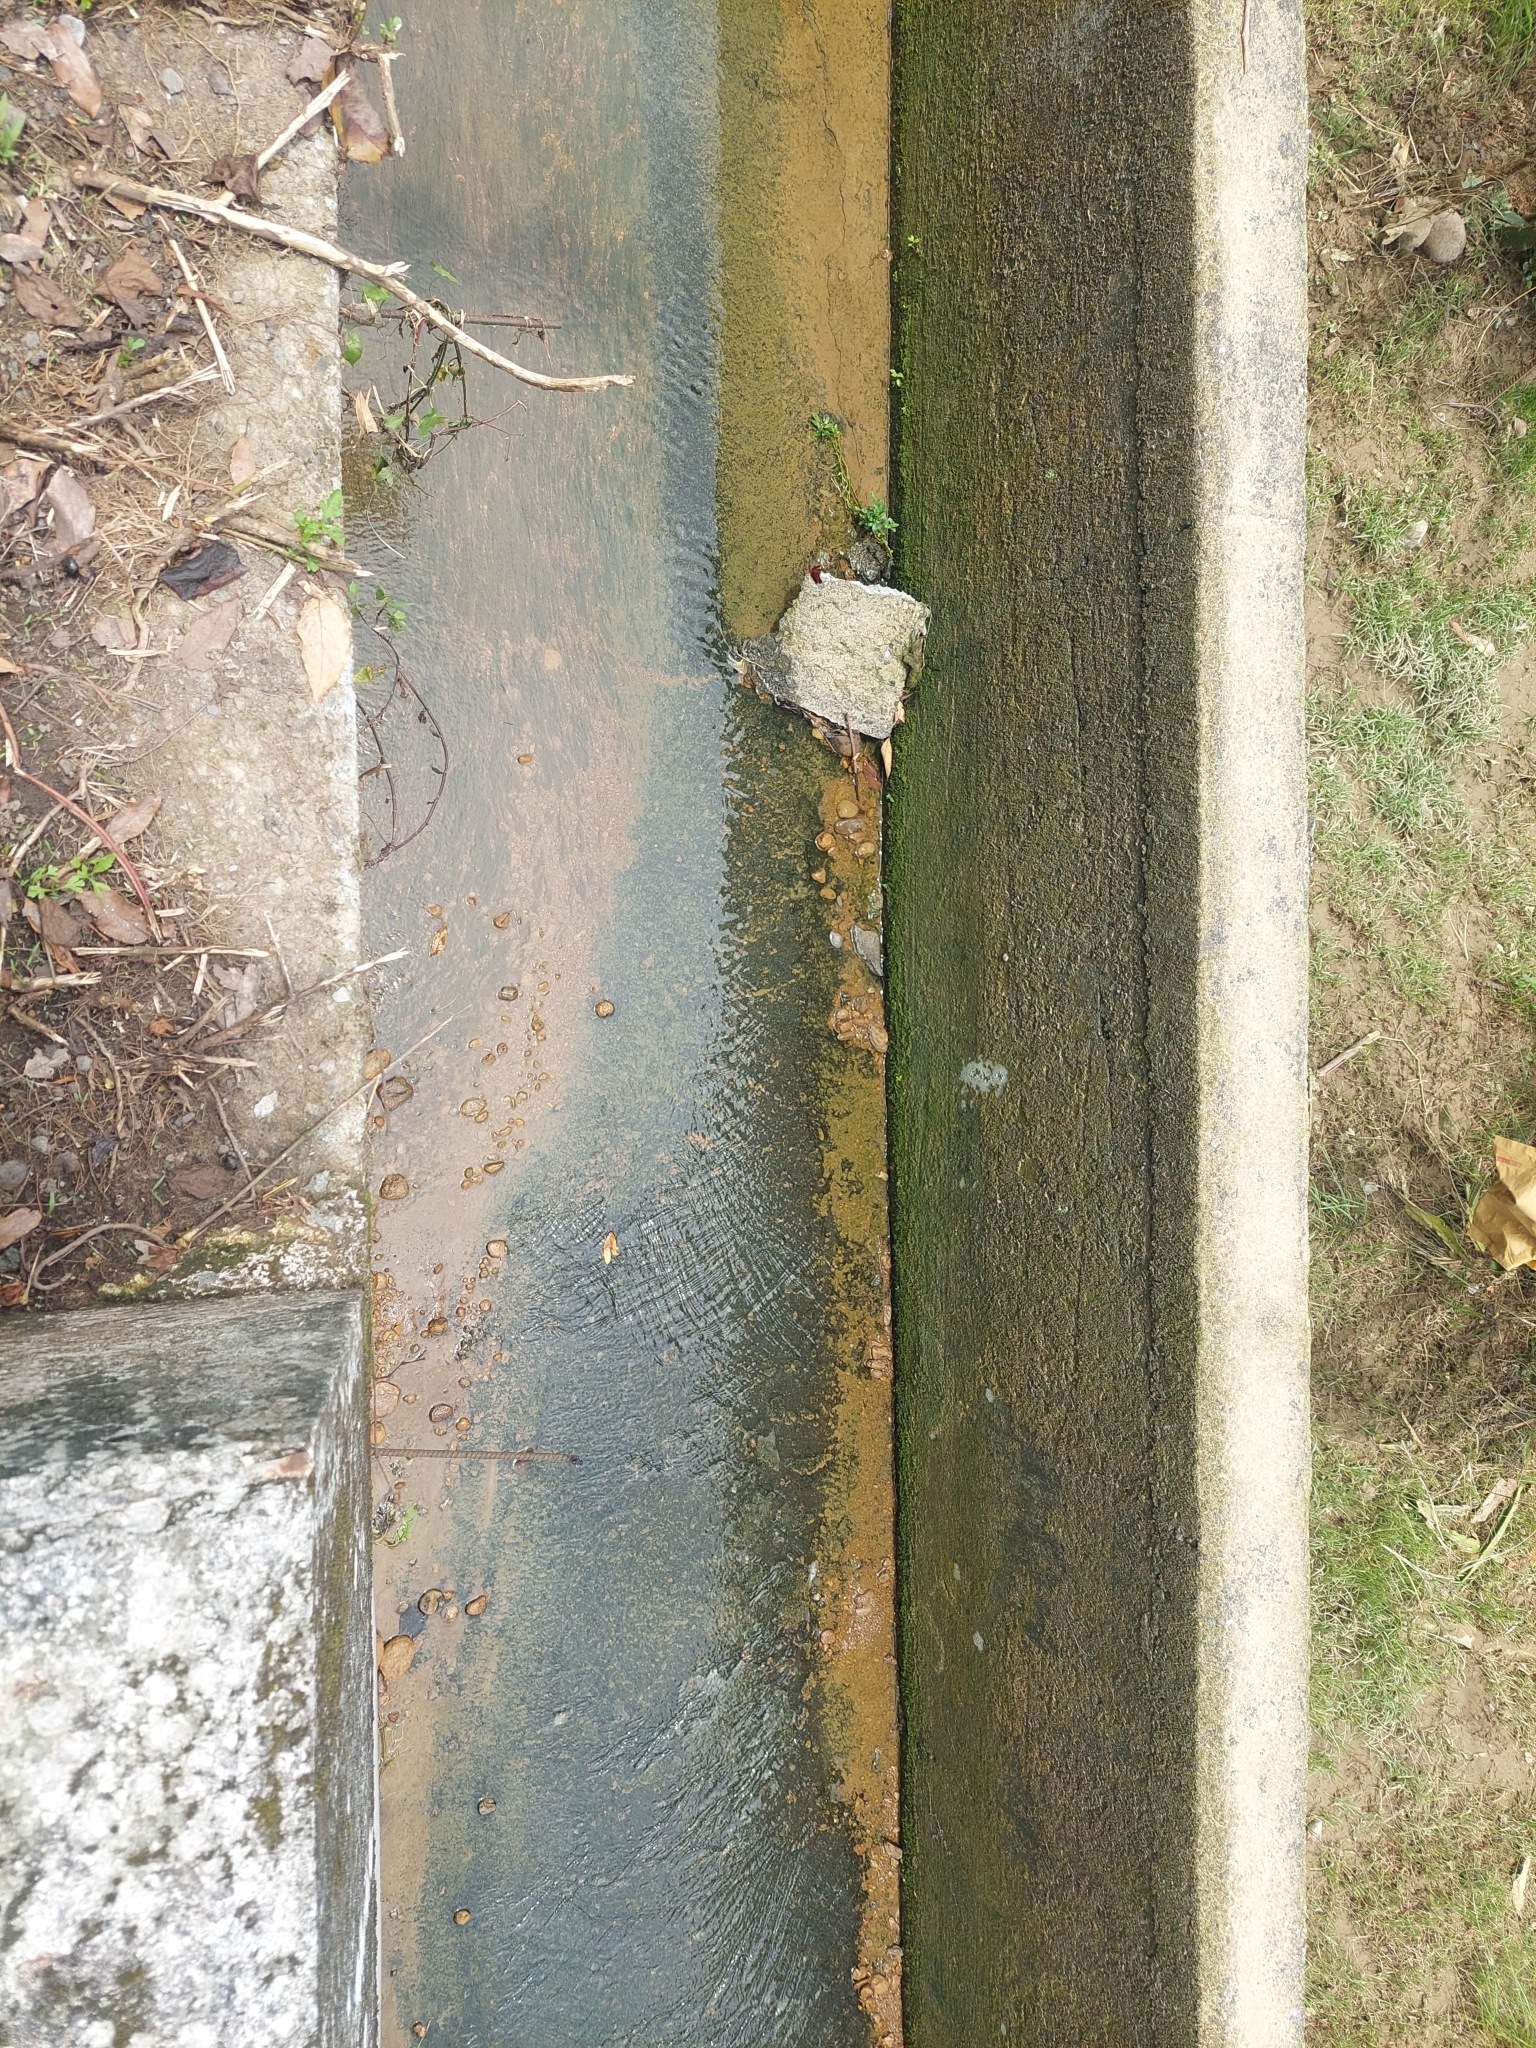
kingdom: Animalia
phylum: Arthropoda
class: Insecta
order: Odonata
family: Libellulidae
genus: Trithemis
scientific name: Trithemis festiva
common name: Indigo dropwing
